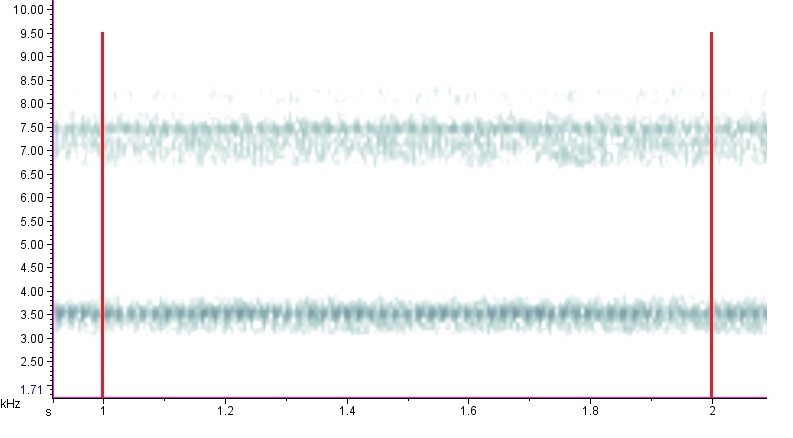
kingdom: Animalia
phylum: Arthropoda
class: Insecta
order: Orthoptera
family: Gryllidae
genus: Oecanthus
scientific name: Oecanthus celerinictus
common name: Fast-calling tree cricket
